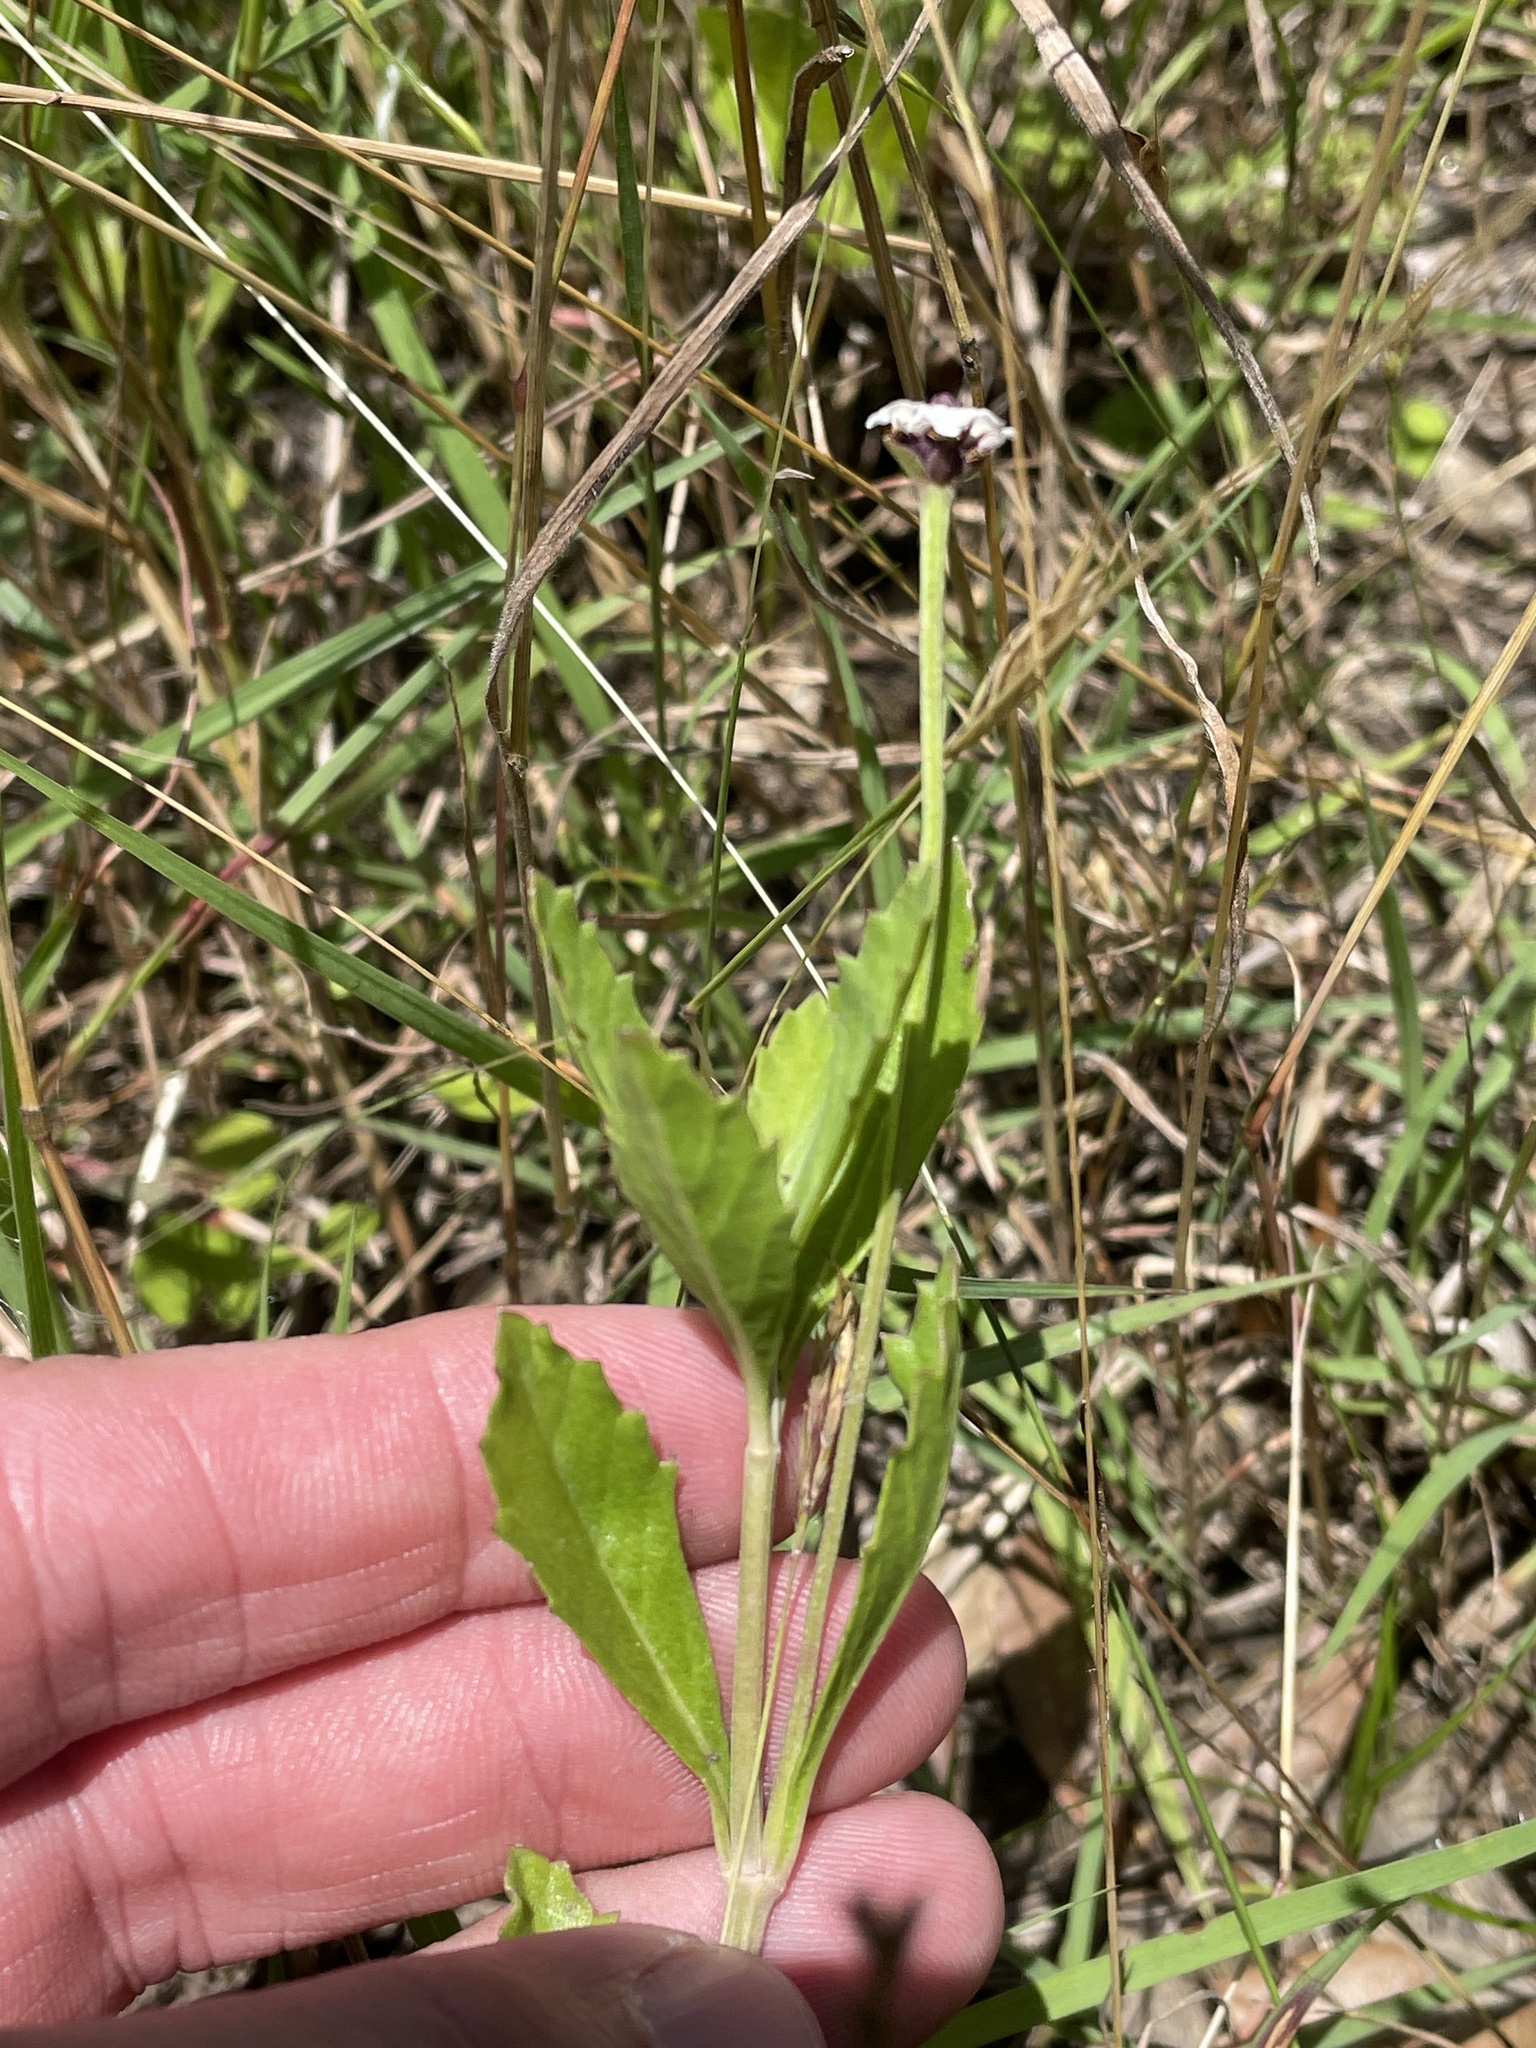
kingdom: Plantae
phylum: Tracheophyta
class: Magnoliopsida
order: Lamiales
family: Verbenaceae
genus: Phyla
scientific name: Phyla nodiflora
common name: Frogfruit
